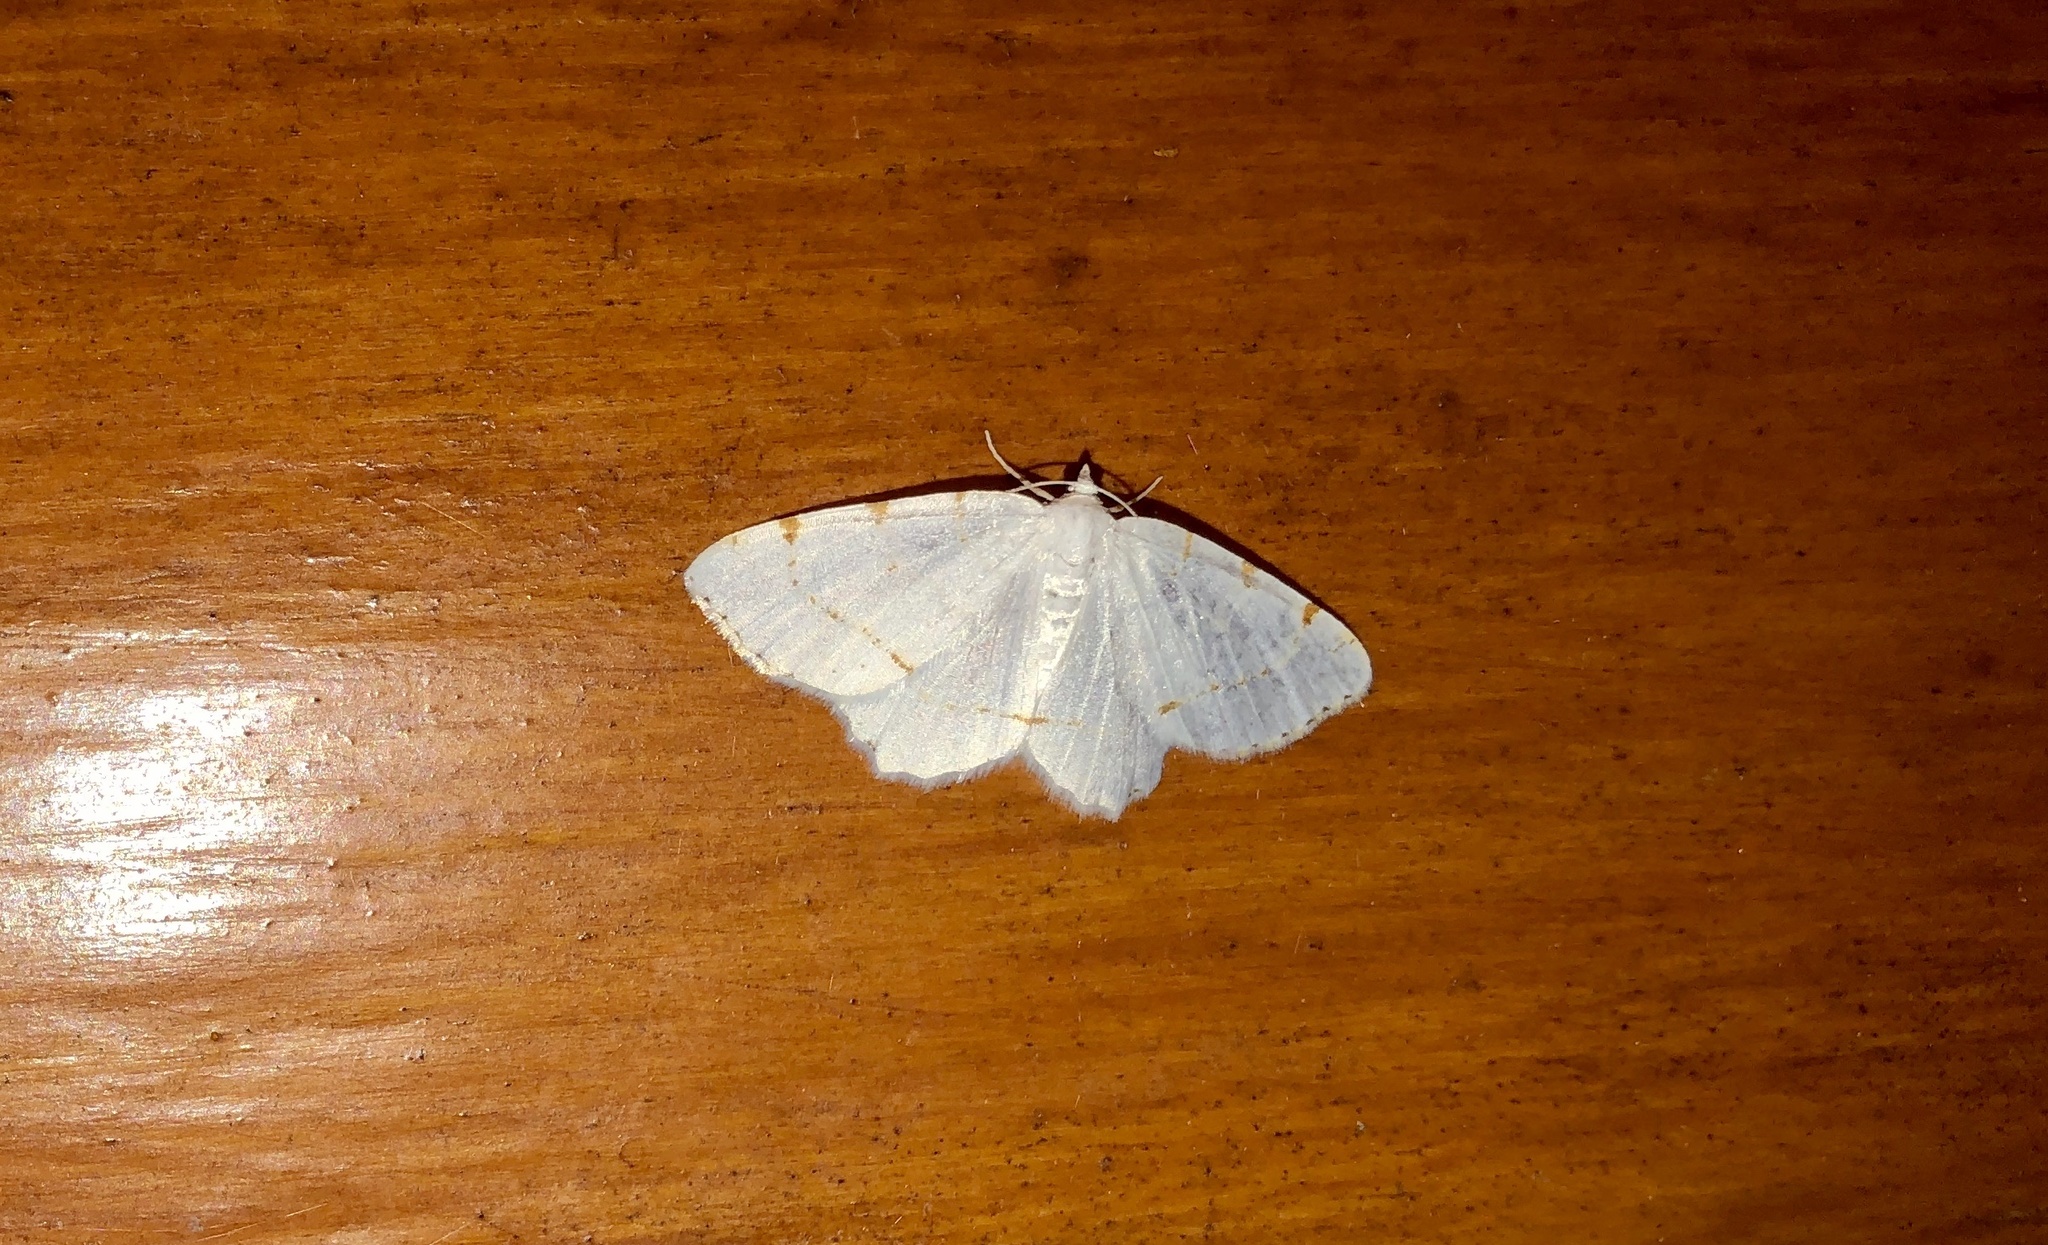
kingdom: Animalia
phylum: Arthropoda
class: Insecta
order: Lepidoptera
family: Geometridae
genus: Macaria
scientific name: Macaria pustularia
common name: Lesser maple spanworm moth
